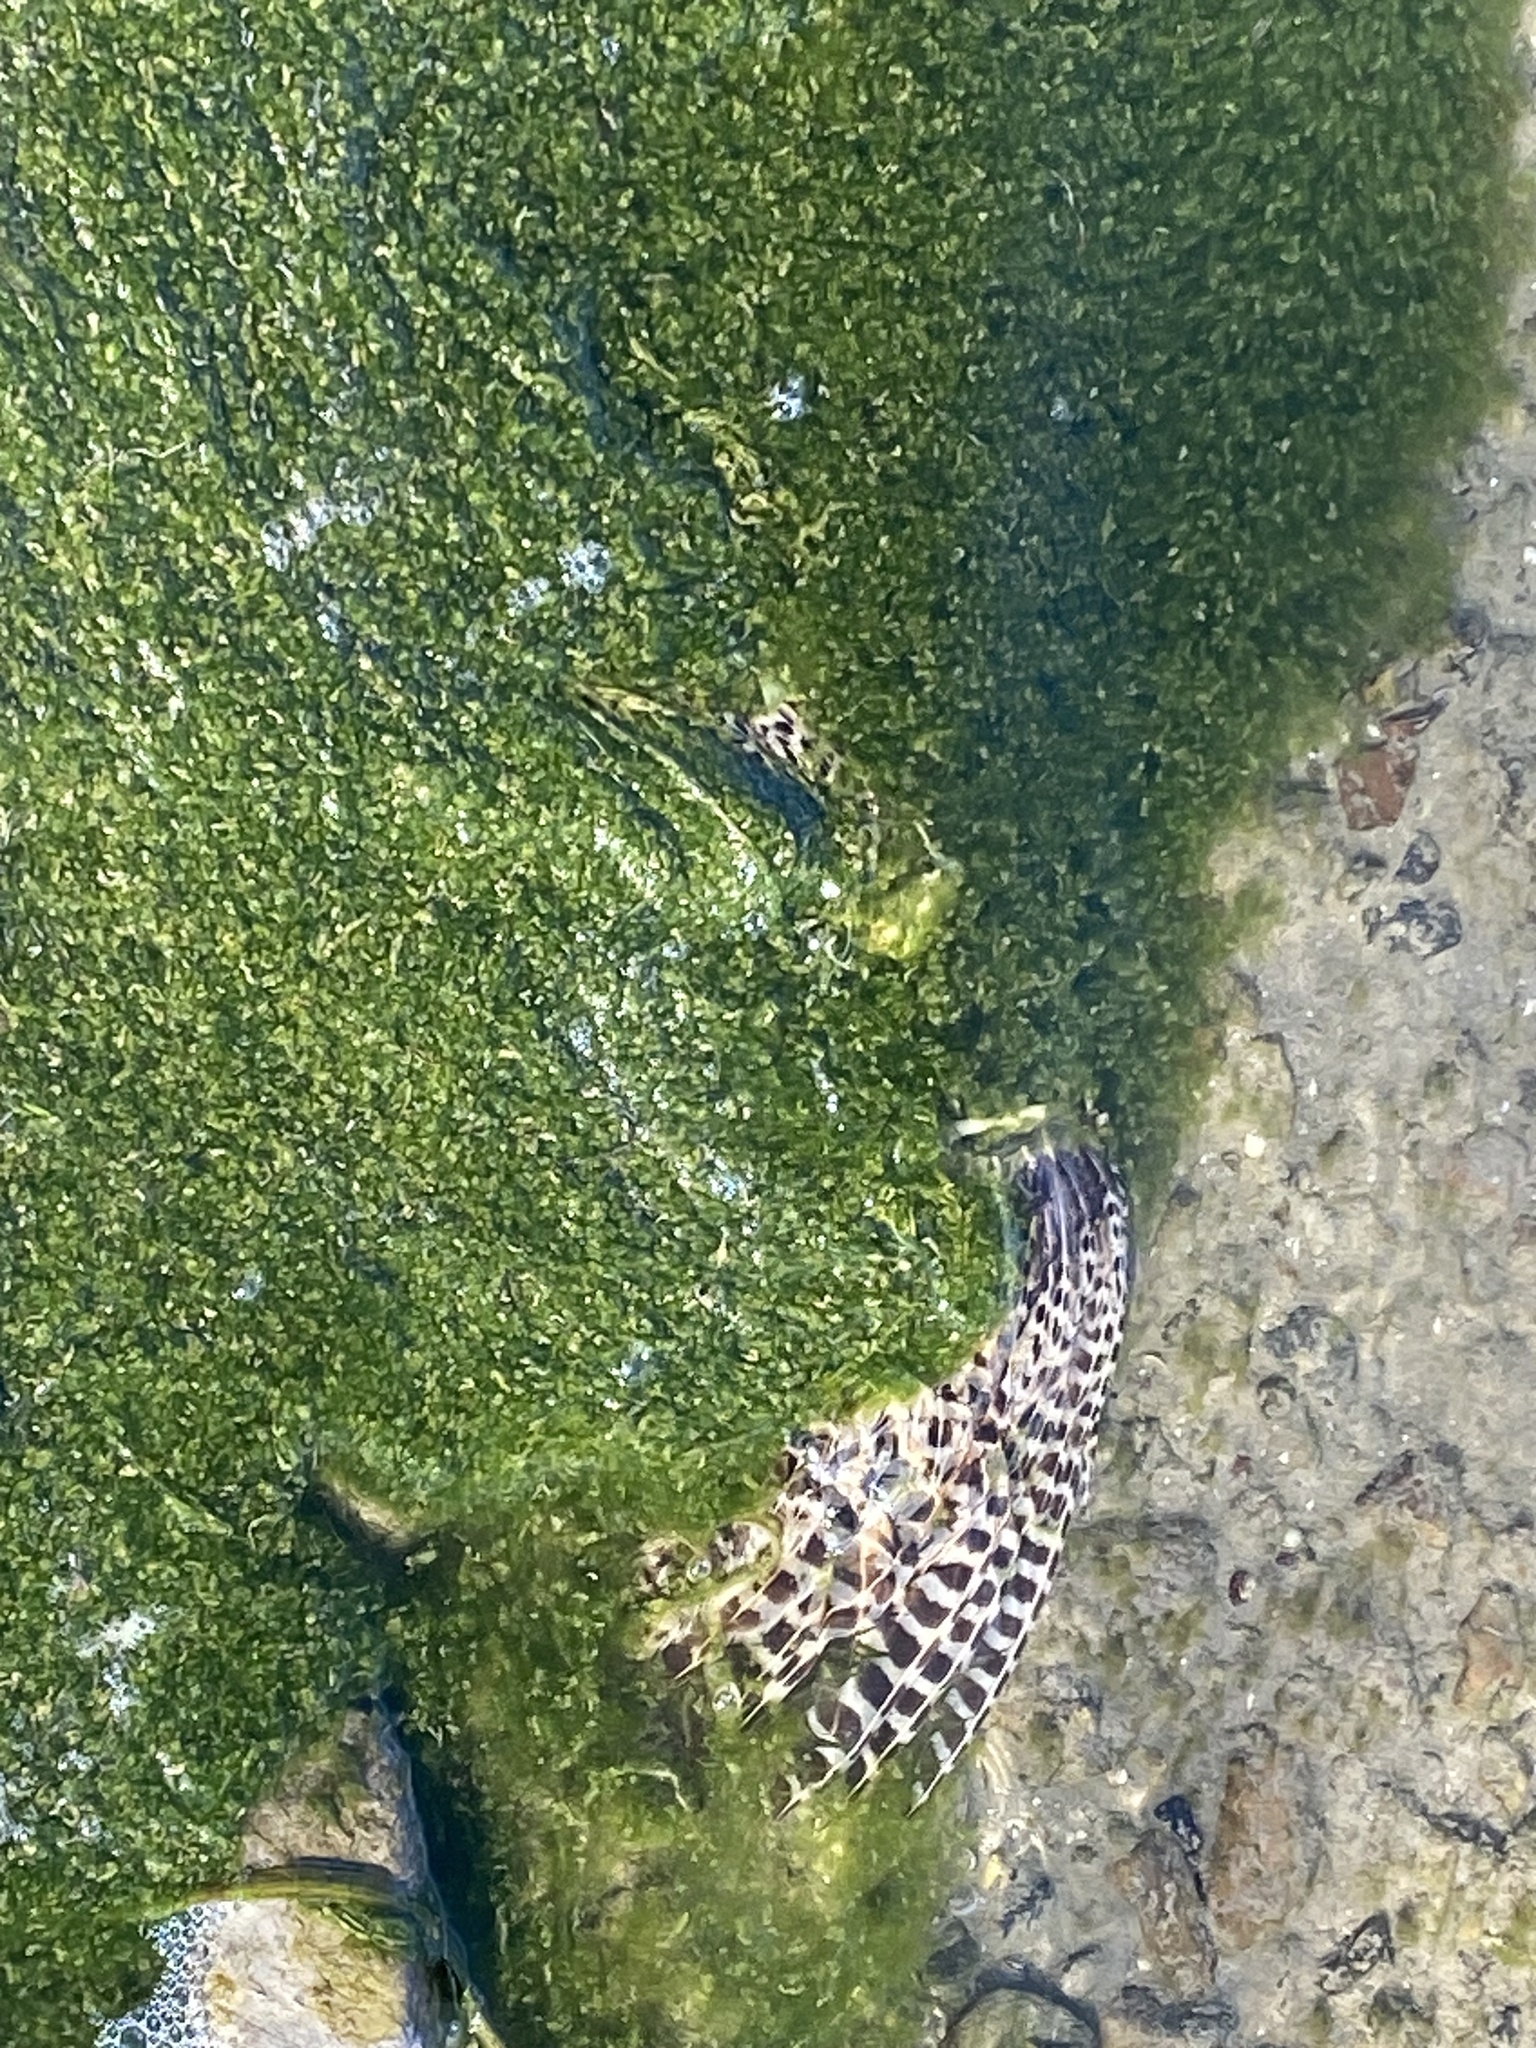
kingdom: Animalia
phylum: Chordata
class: Aves
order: Galliformes
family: Phasianidae
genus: Phasianus
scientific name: Phasianus colchicus
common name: Common pheasant
